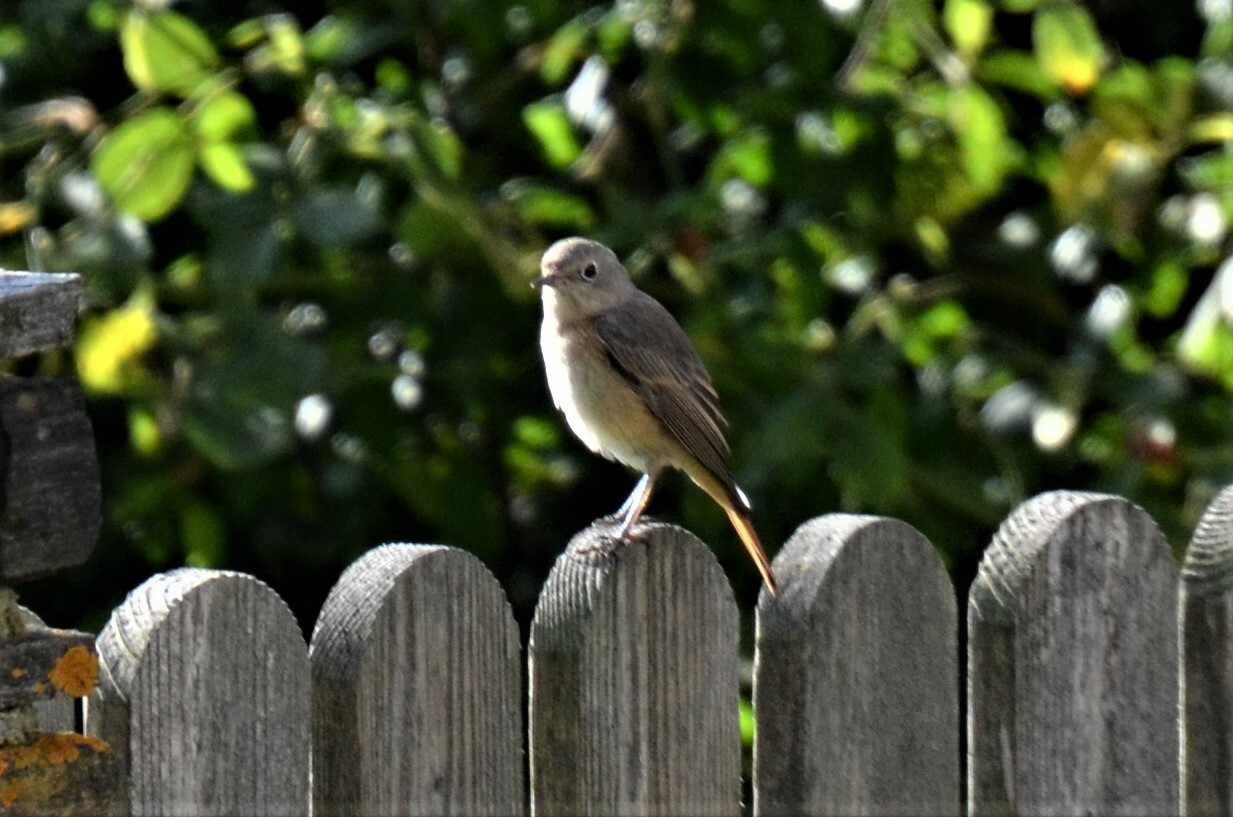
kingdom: Animalia
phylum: Chordata
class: Aves
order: Passeriformes
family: Muscicapidae
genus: Phoenicurus
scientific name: Phoenicurus phoenicurus
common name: Common redstart
